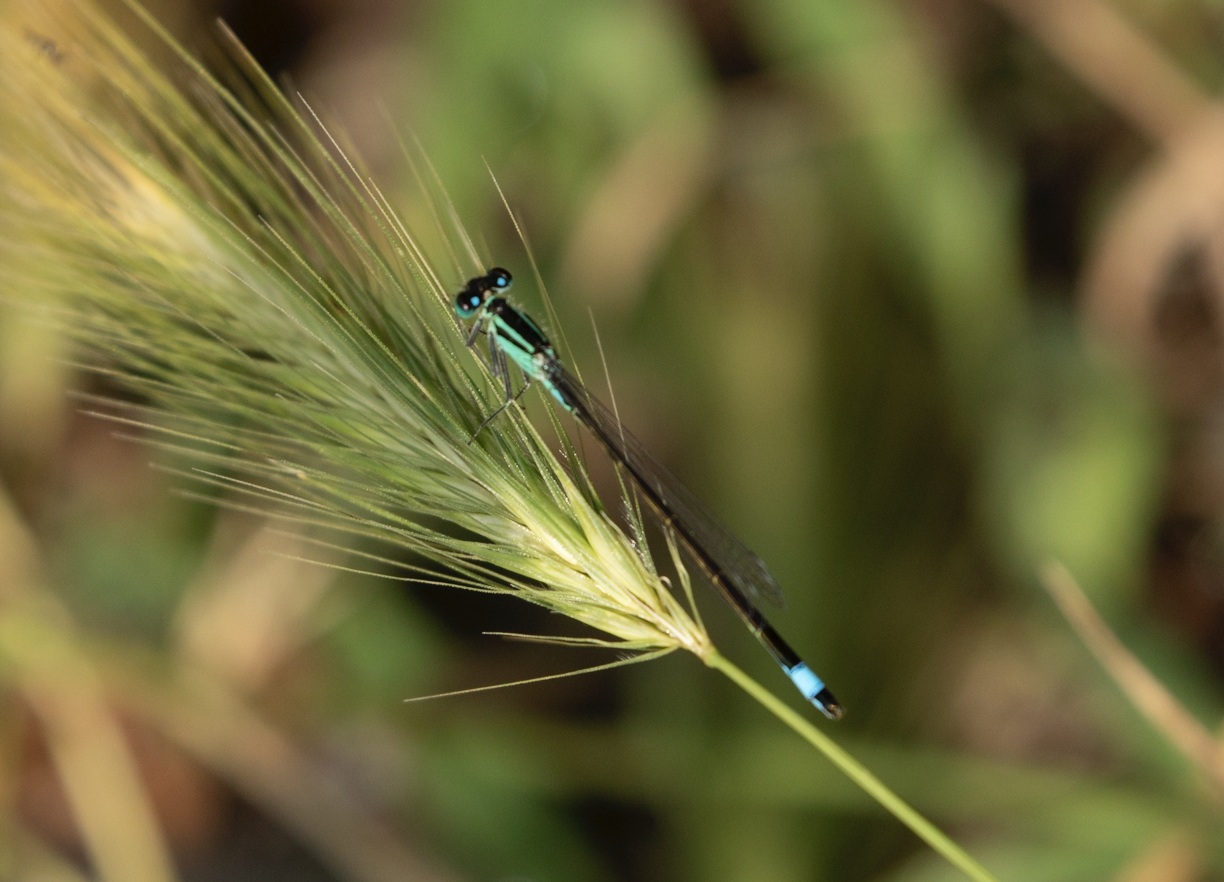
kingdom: Animalia
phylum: Arthropoda
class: Insecta
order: Odonata
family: Coenagrionidae
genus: Ischnura
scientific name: Ischnura elegans
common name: Blue-tailed damselfly
